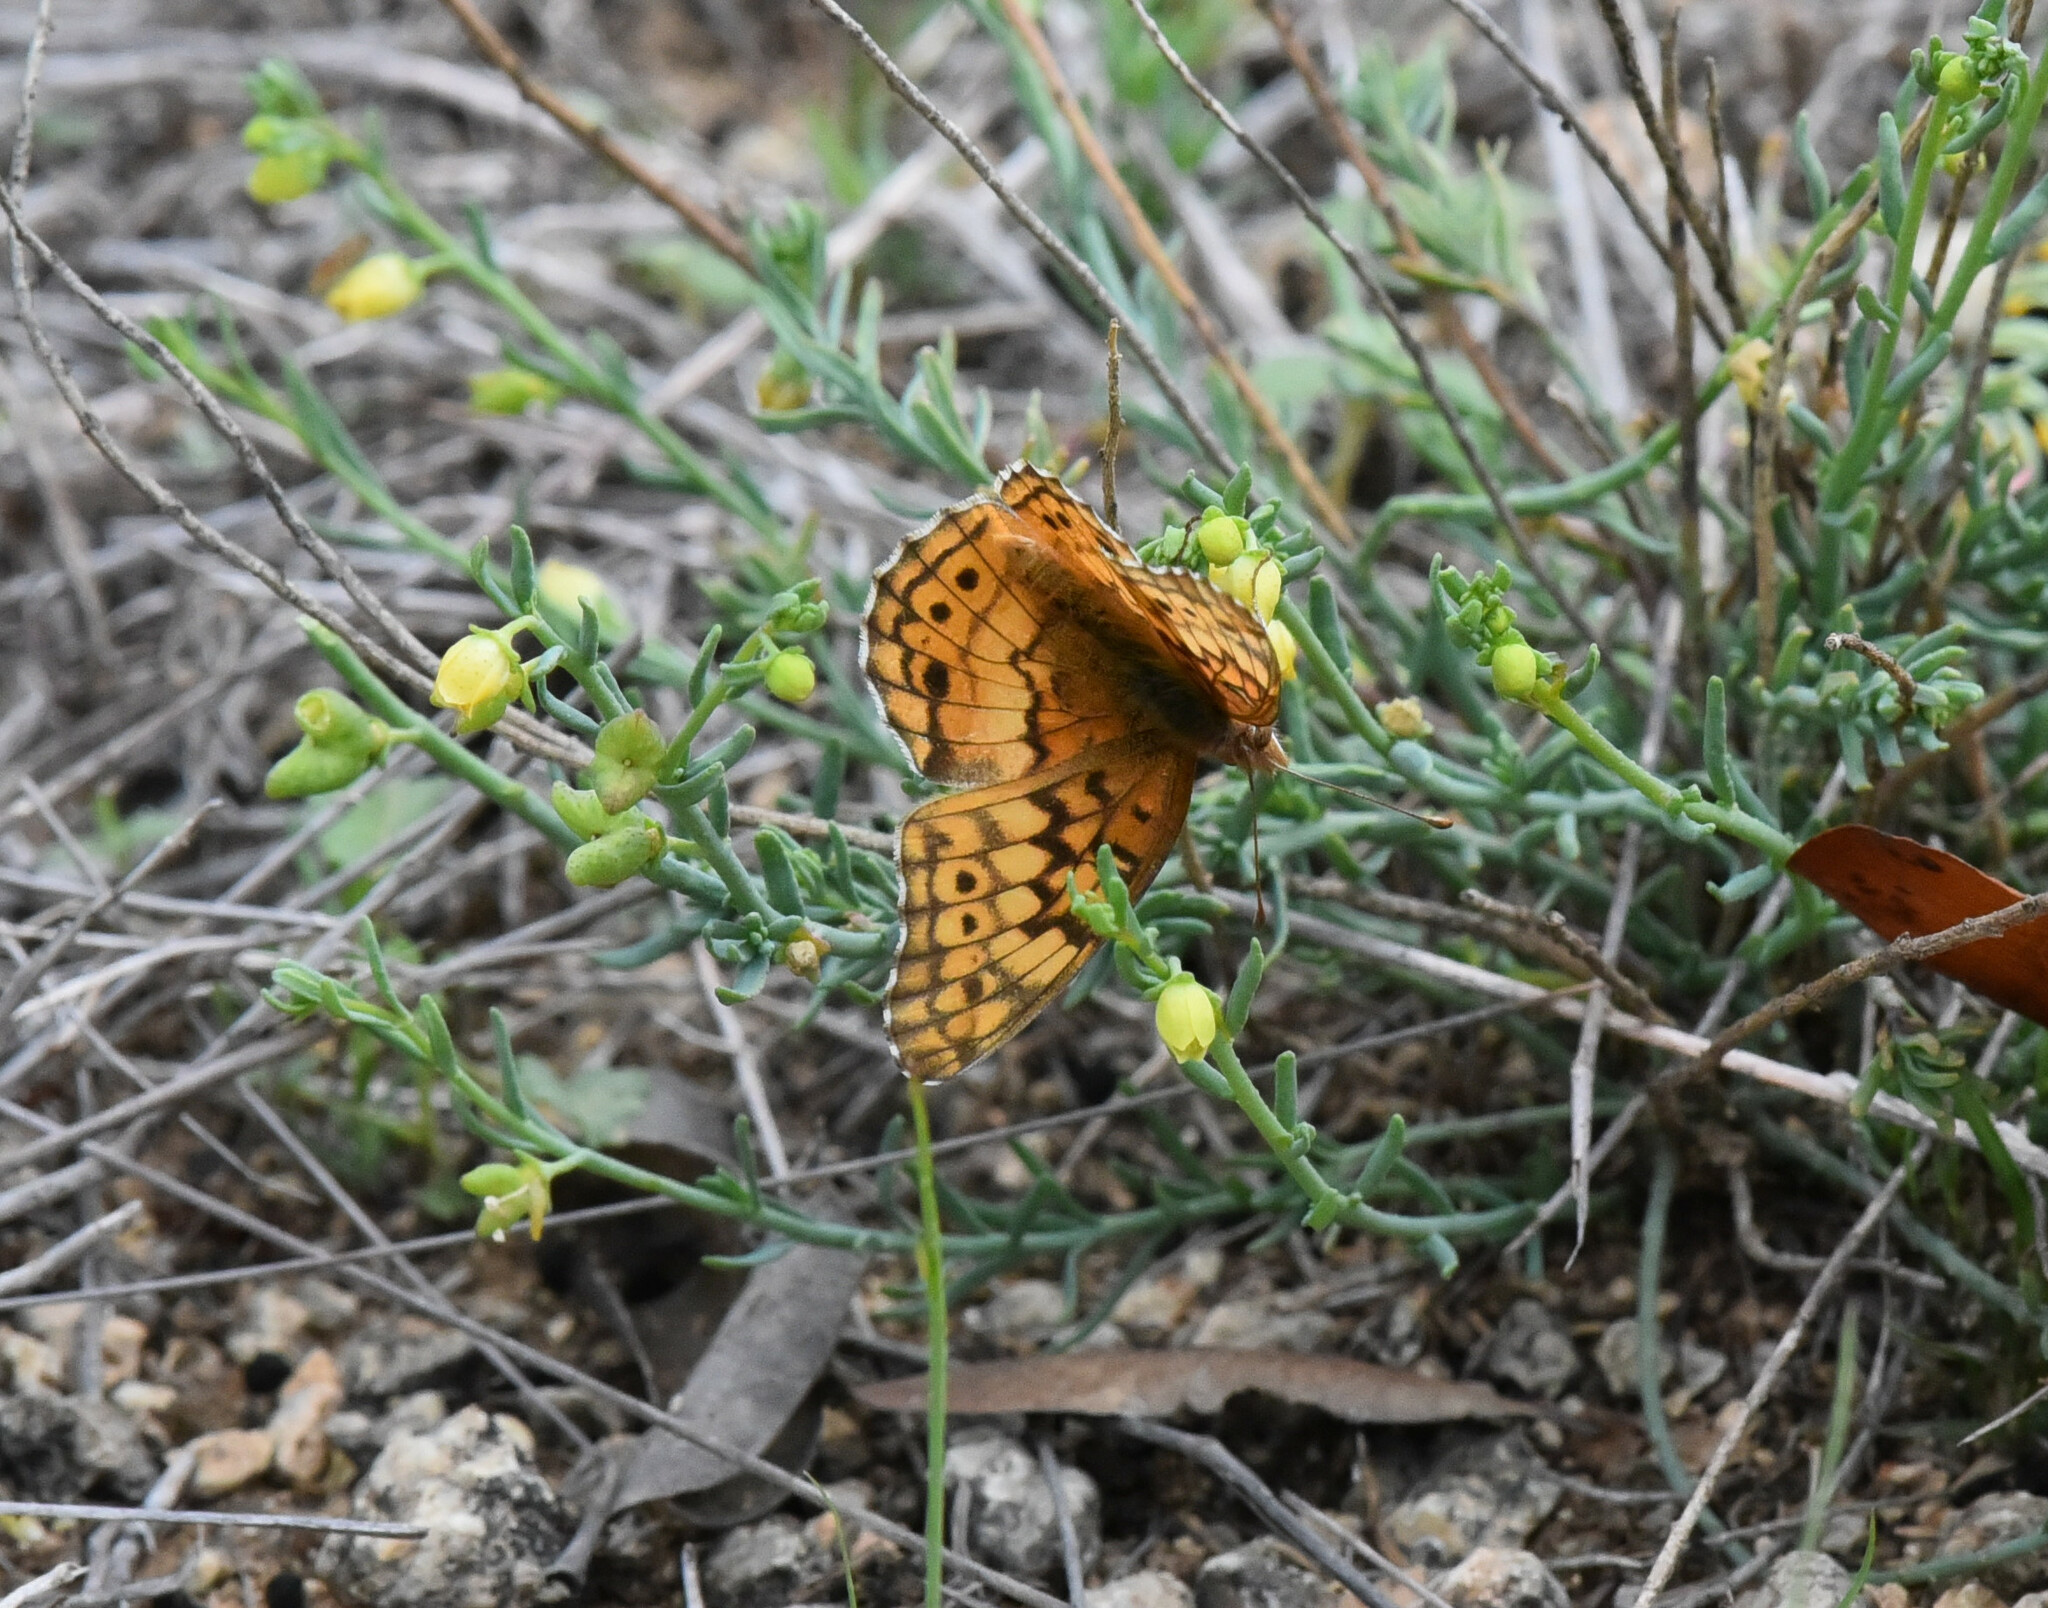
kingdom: Animalia
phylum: Arthropoda
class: Insecta
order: Lepidoptera
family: Nymphalidae
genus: Euptoieta
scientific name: Euptoieta claudia
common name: Variegated fritillary
